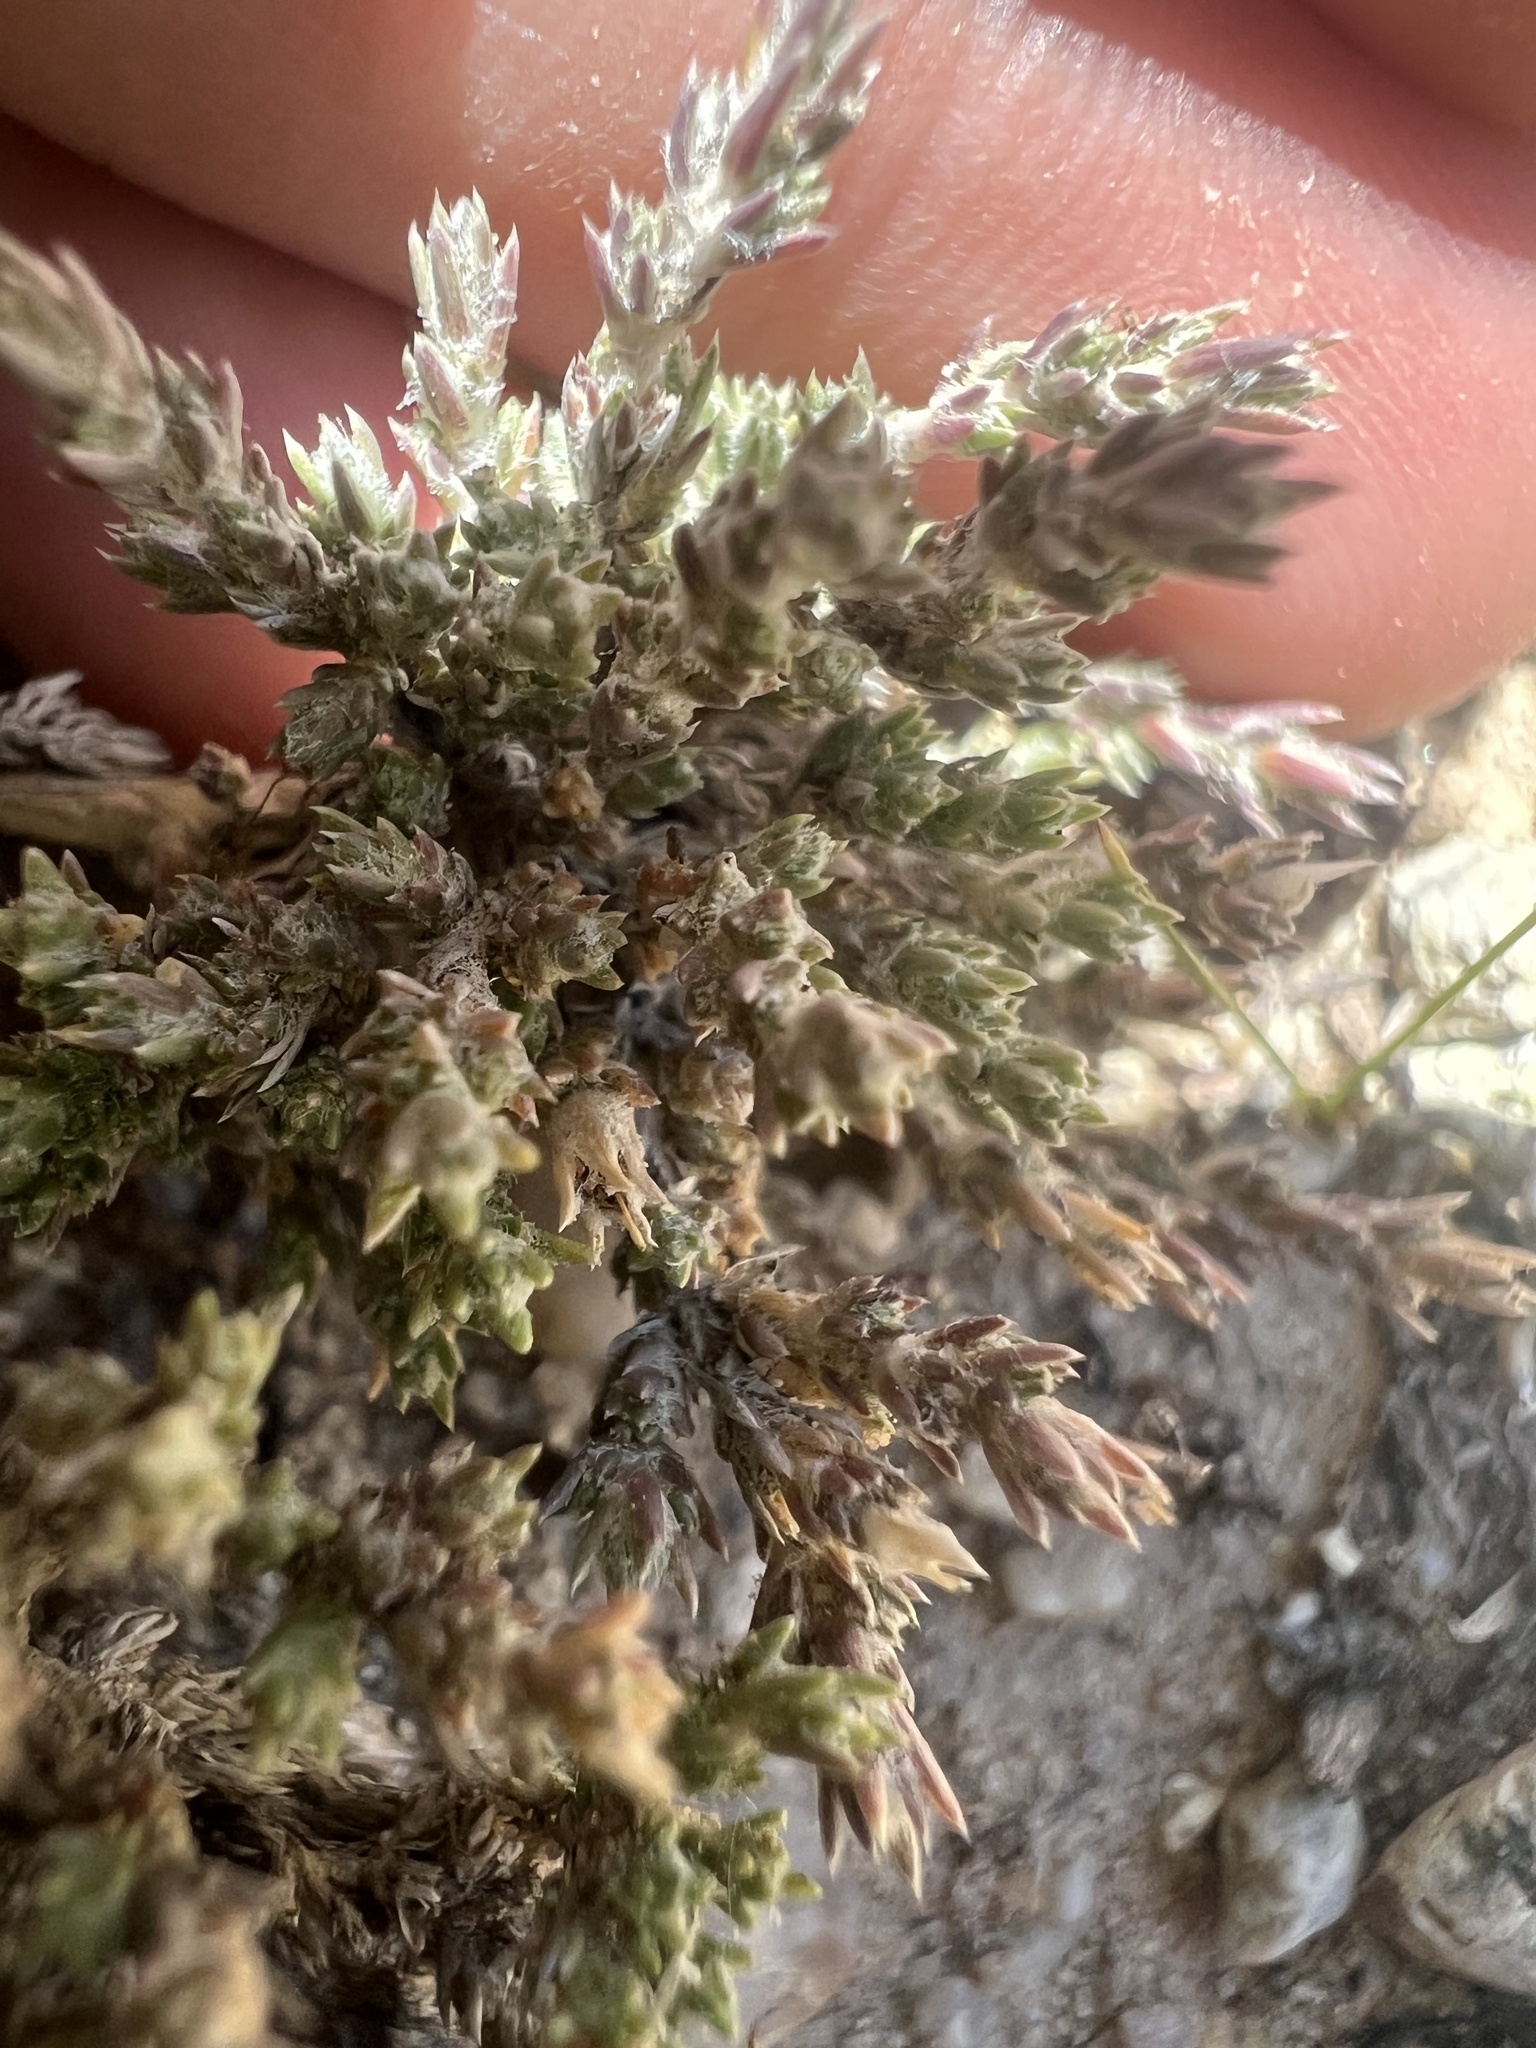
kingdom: Plantae
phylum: Tracheophyta
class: Magnoliopsida
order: Ericales
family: Polemoniaceae
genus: Phlox
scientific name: Phlox hoodii
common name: Moss phlox
